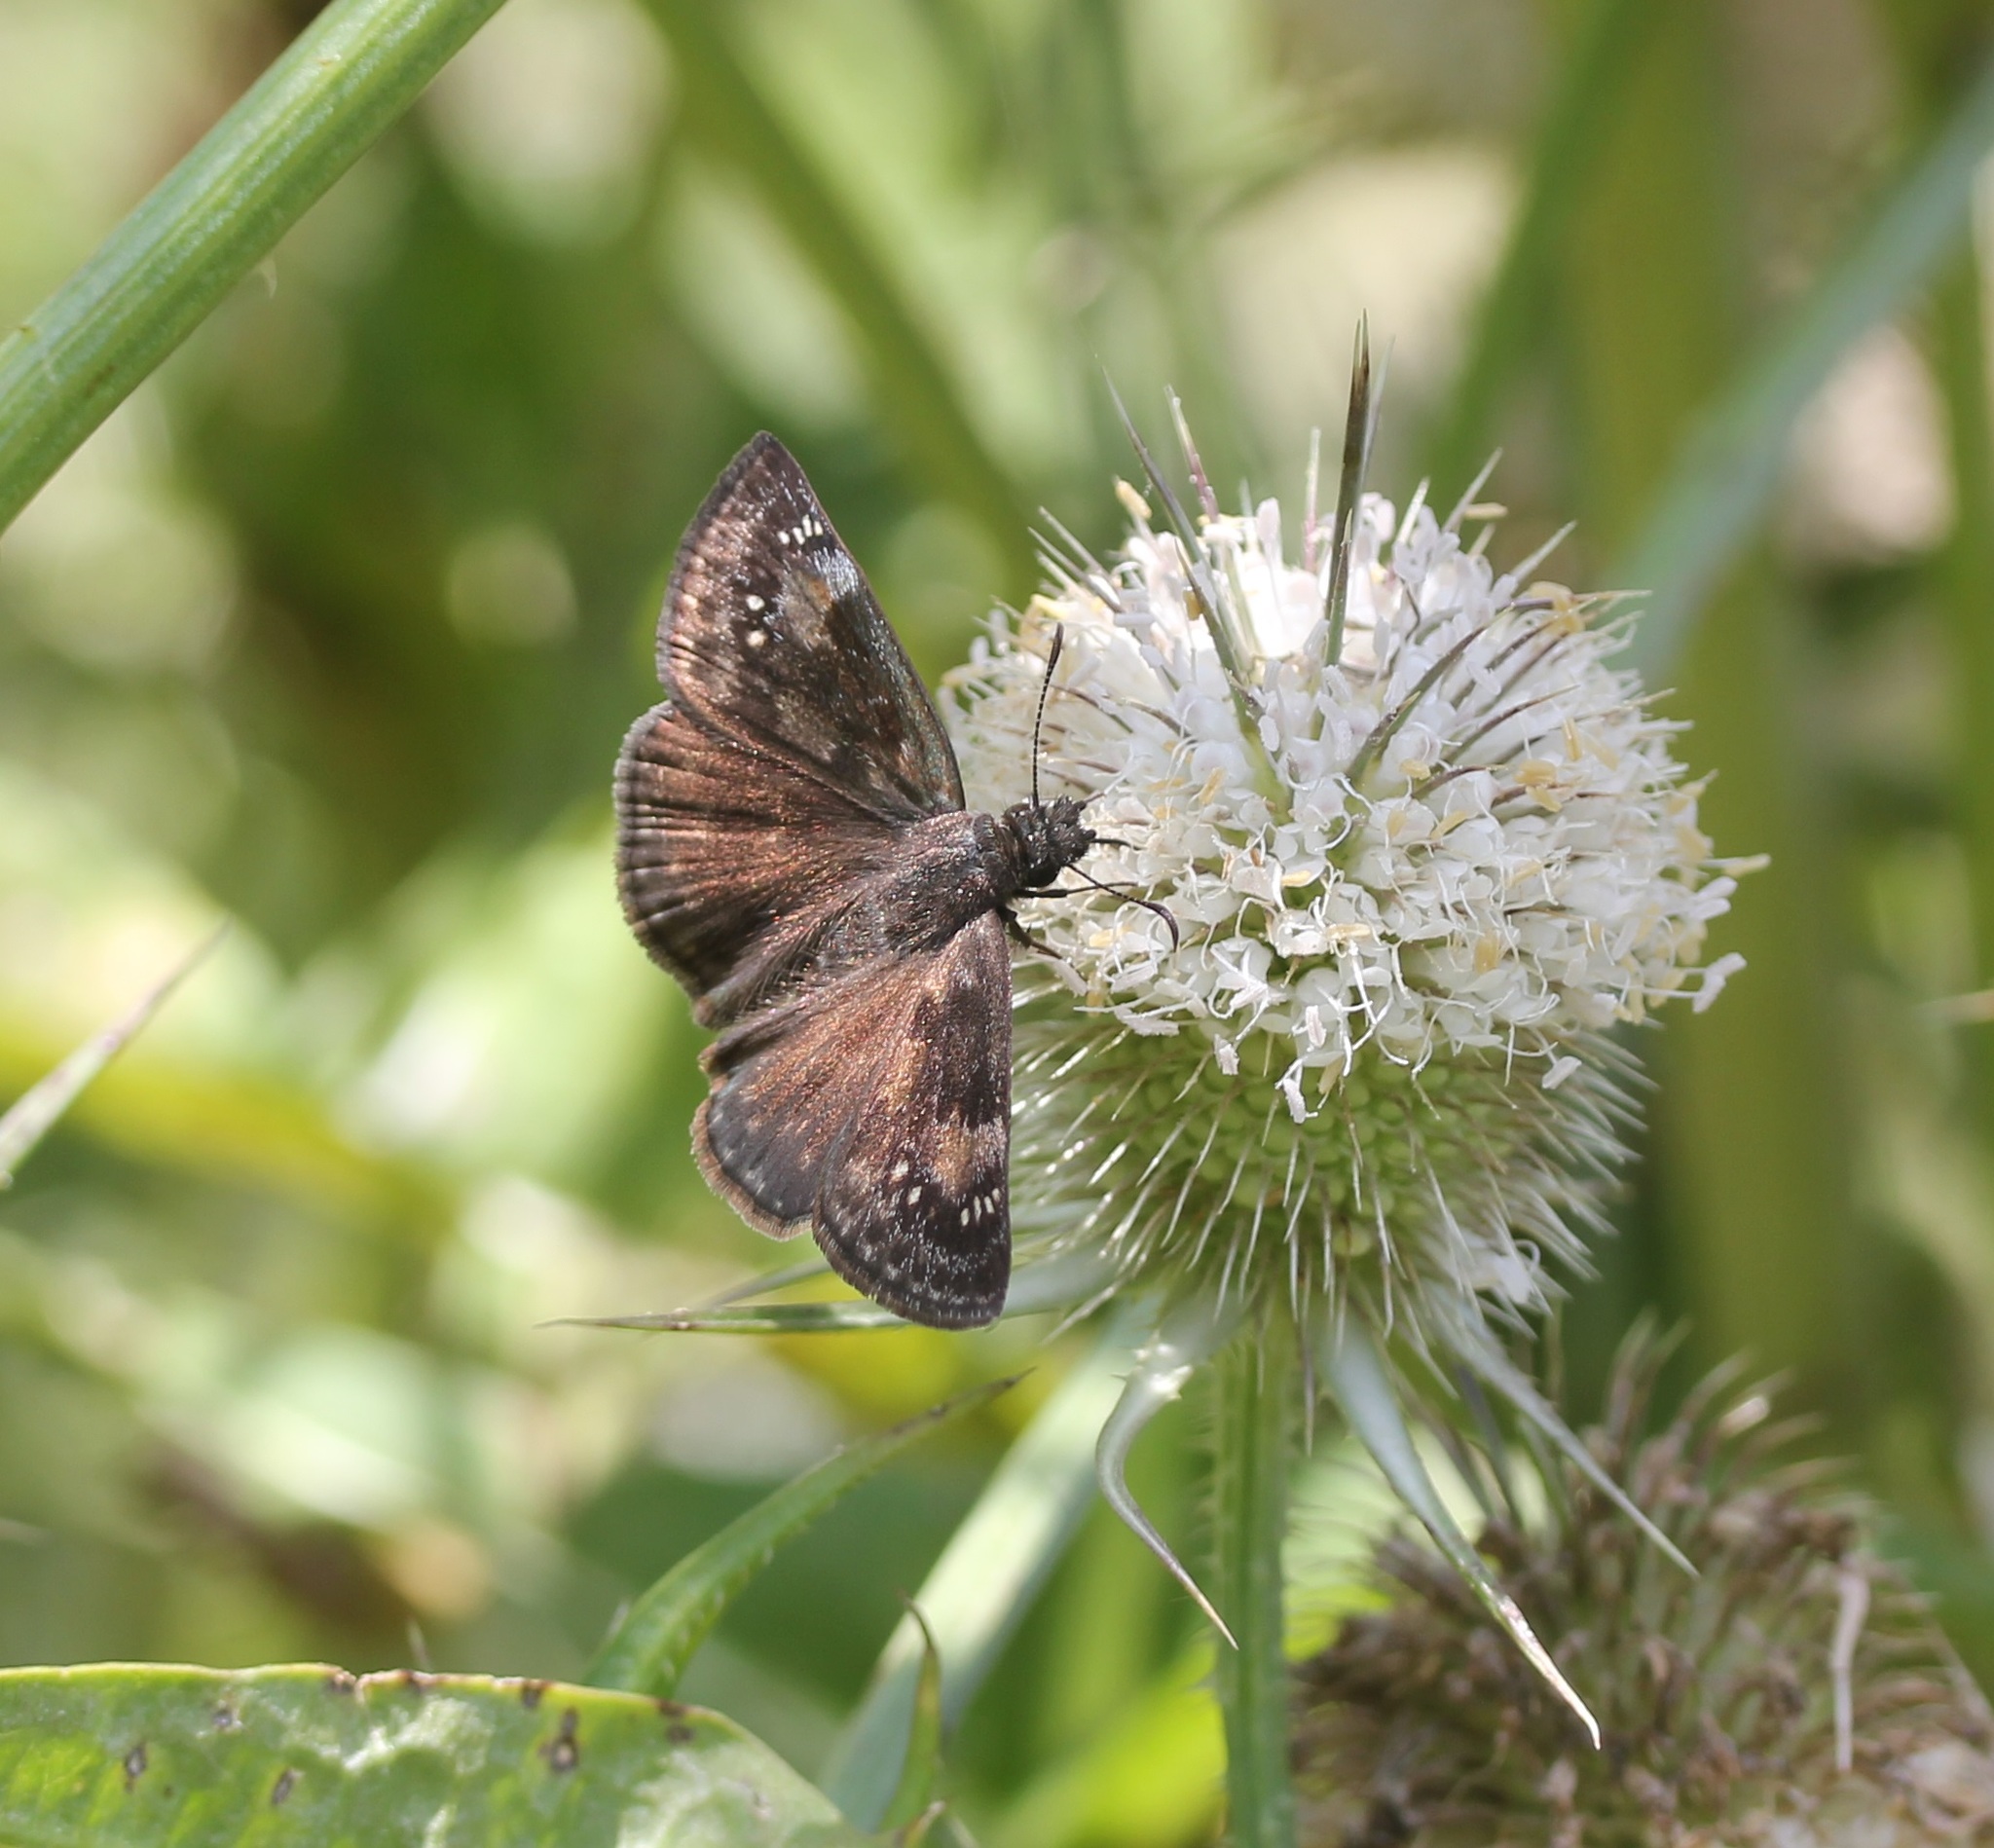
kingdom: Animalia
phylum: Arthropoda
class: Insecta
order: Lepidoptera
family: Hesperiidae
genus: Erynnis
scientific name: Erynnis baptisiae
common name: Wild indigo duskywing
